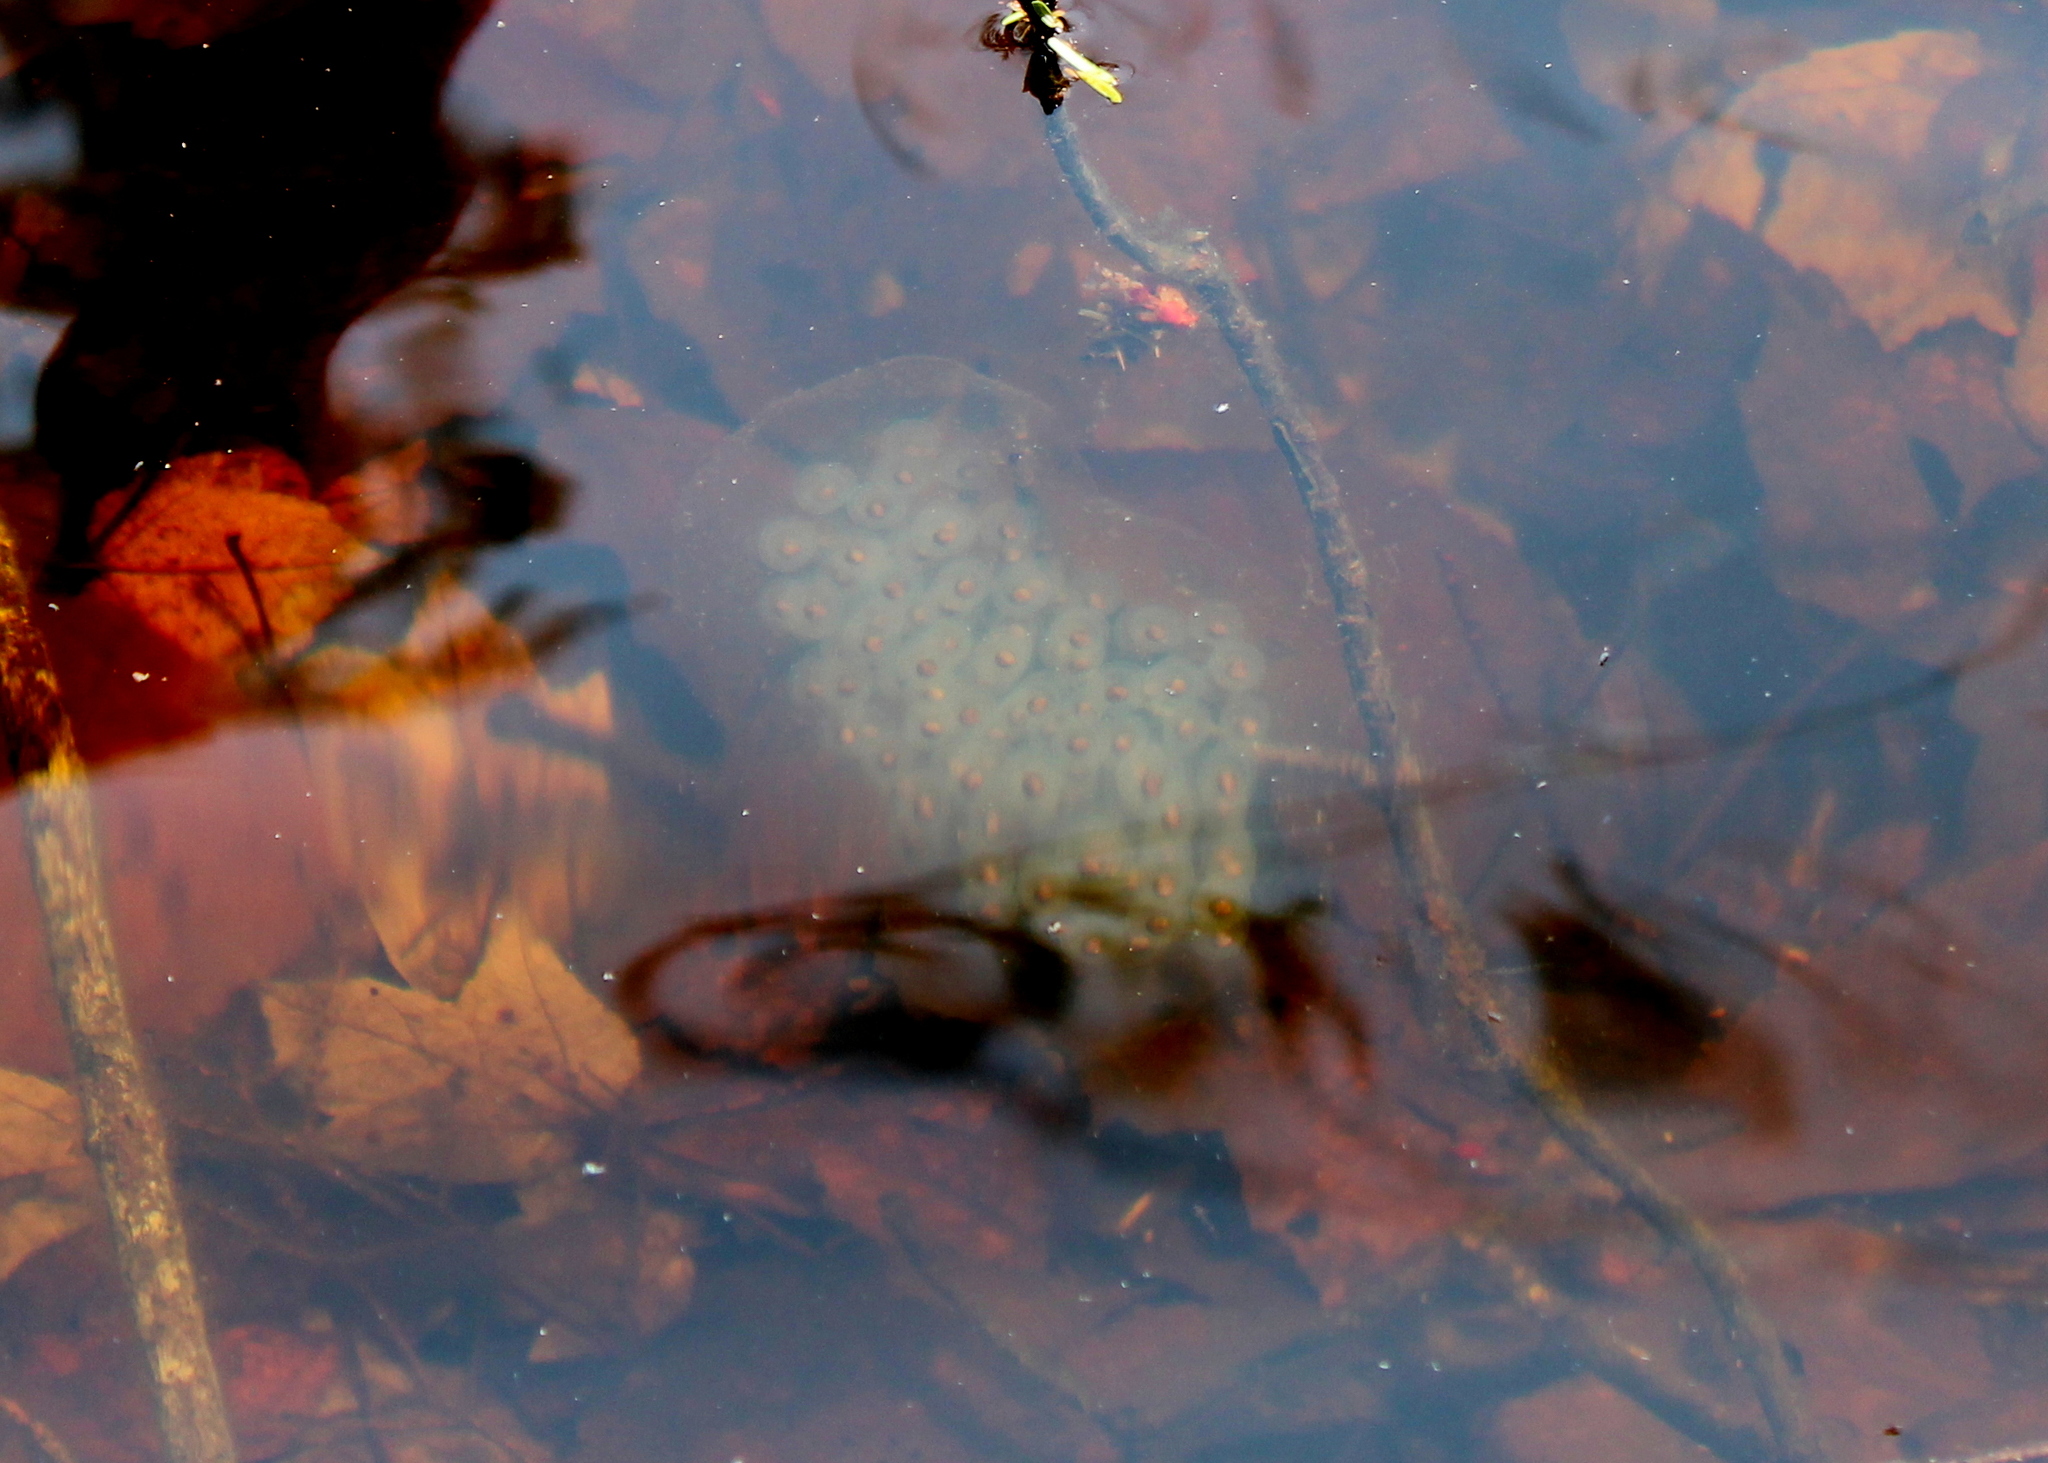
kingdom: Animalia
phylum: Chordata
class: Amphibia
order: Caudata
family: Ambystomatidae
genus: Ambystoma
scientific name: Ambystoma maculatum
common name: Spotted salamander
